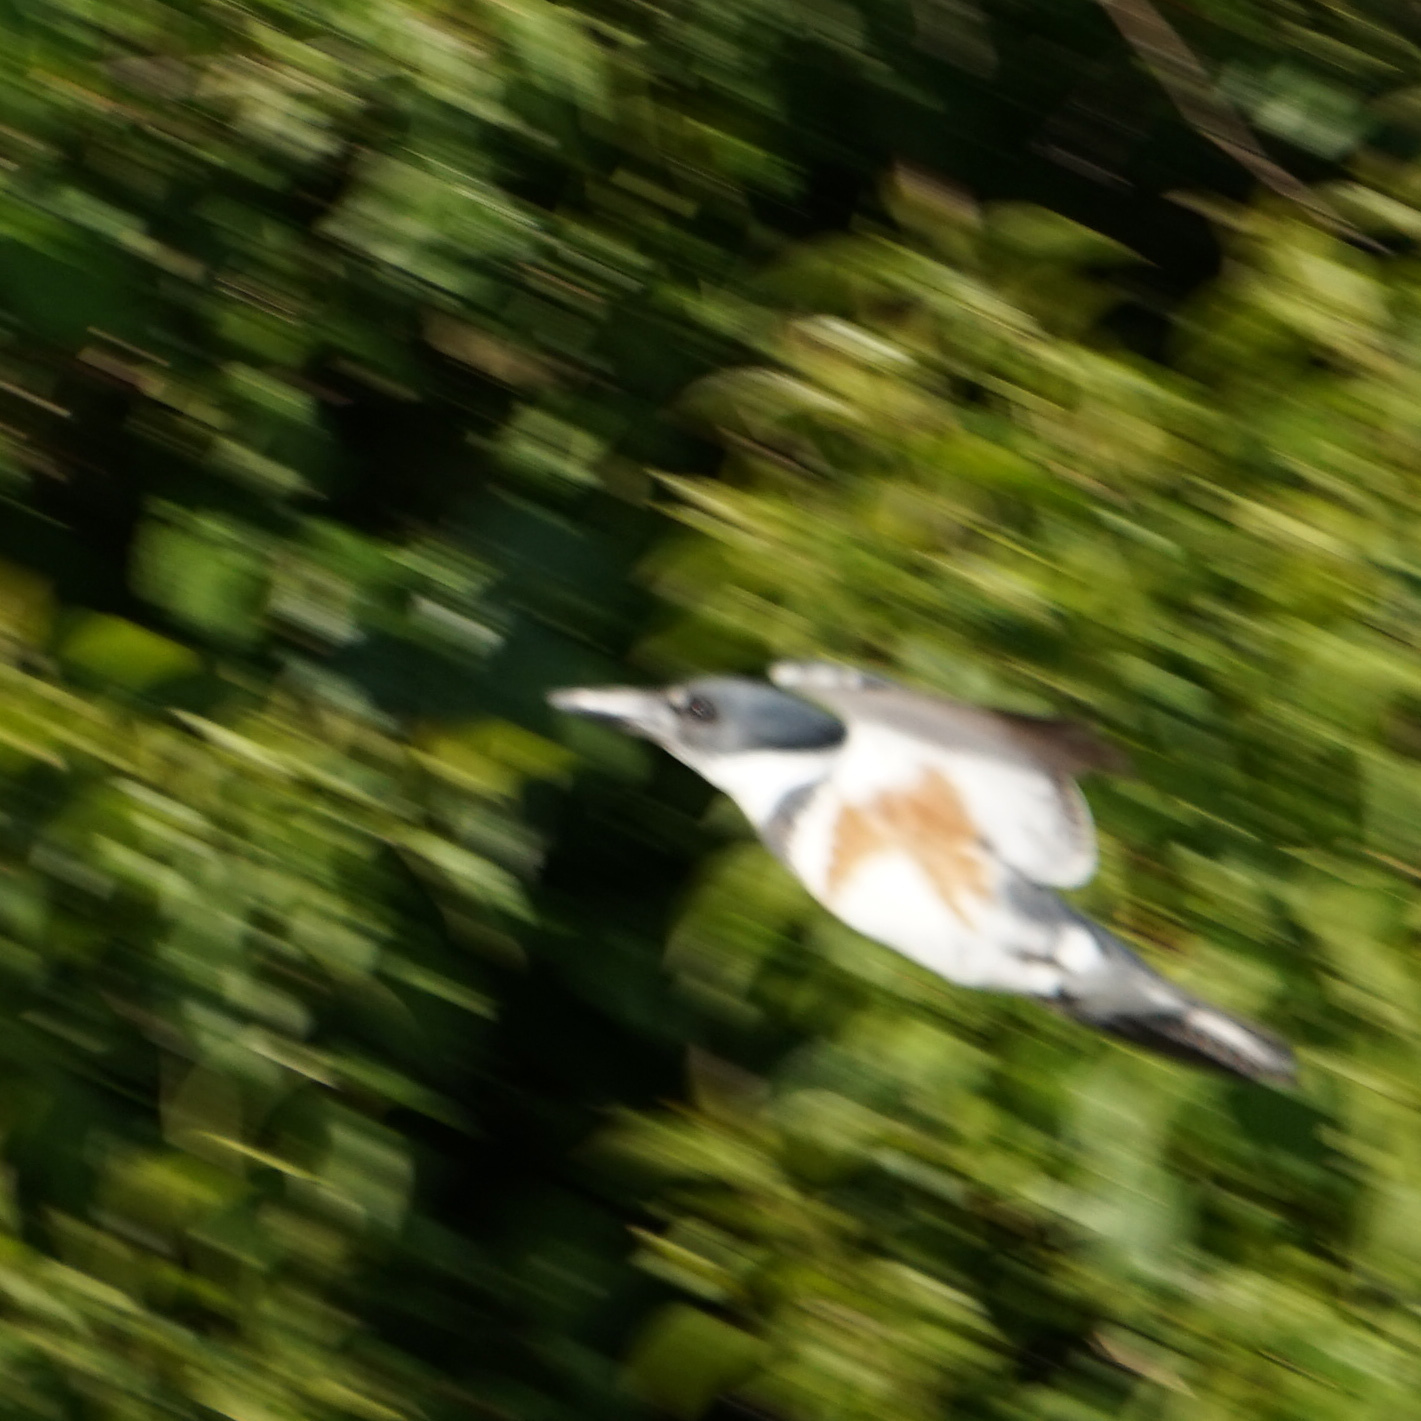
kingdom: Animalia
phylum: Chordata
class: Aves
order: Coraciiformes
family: Alcedinidae
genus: Megaceryle
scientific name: Megaceryle alcyon
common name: Belted kingfisher
